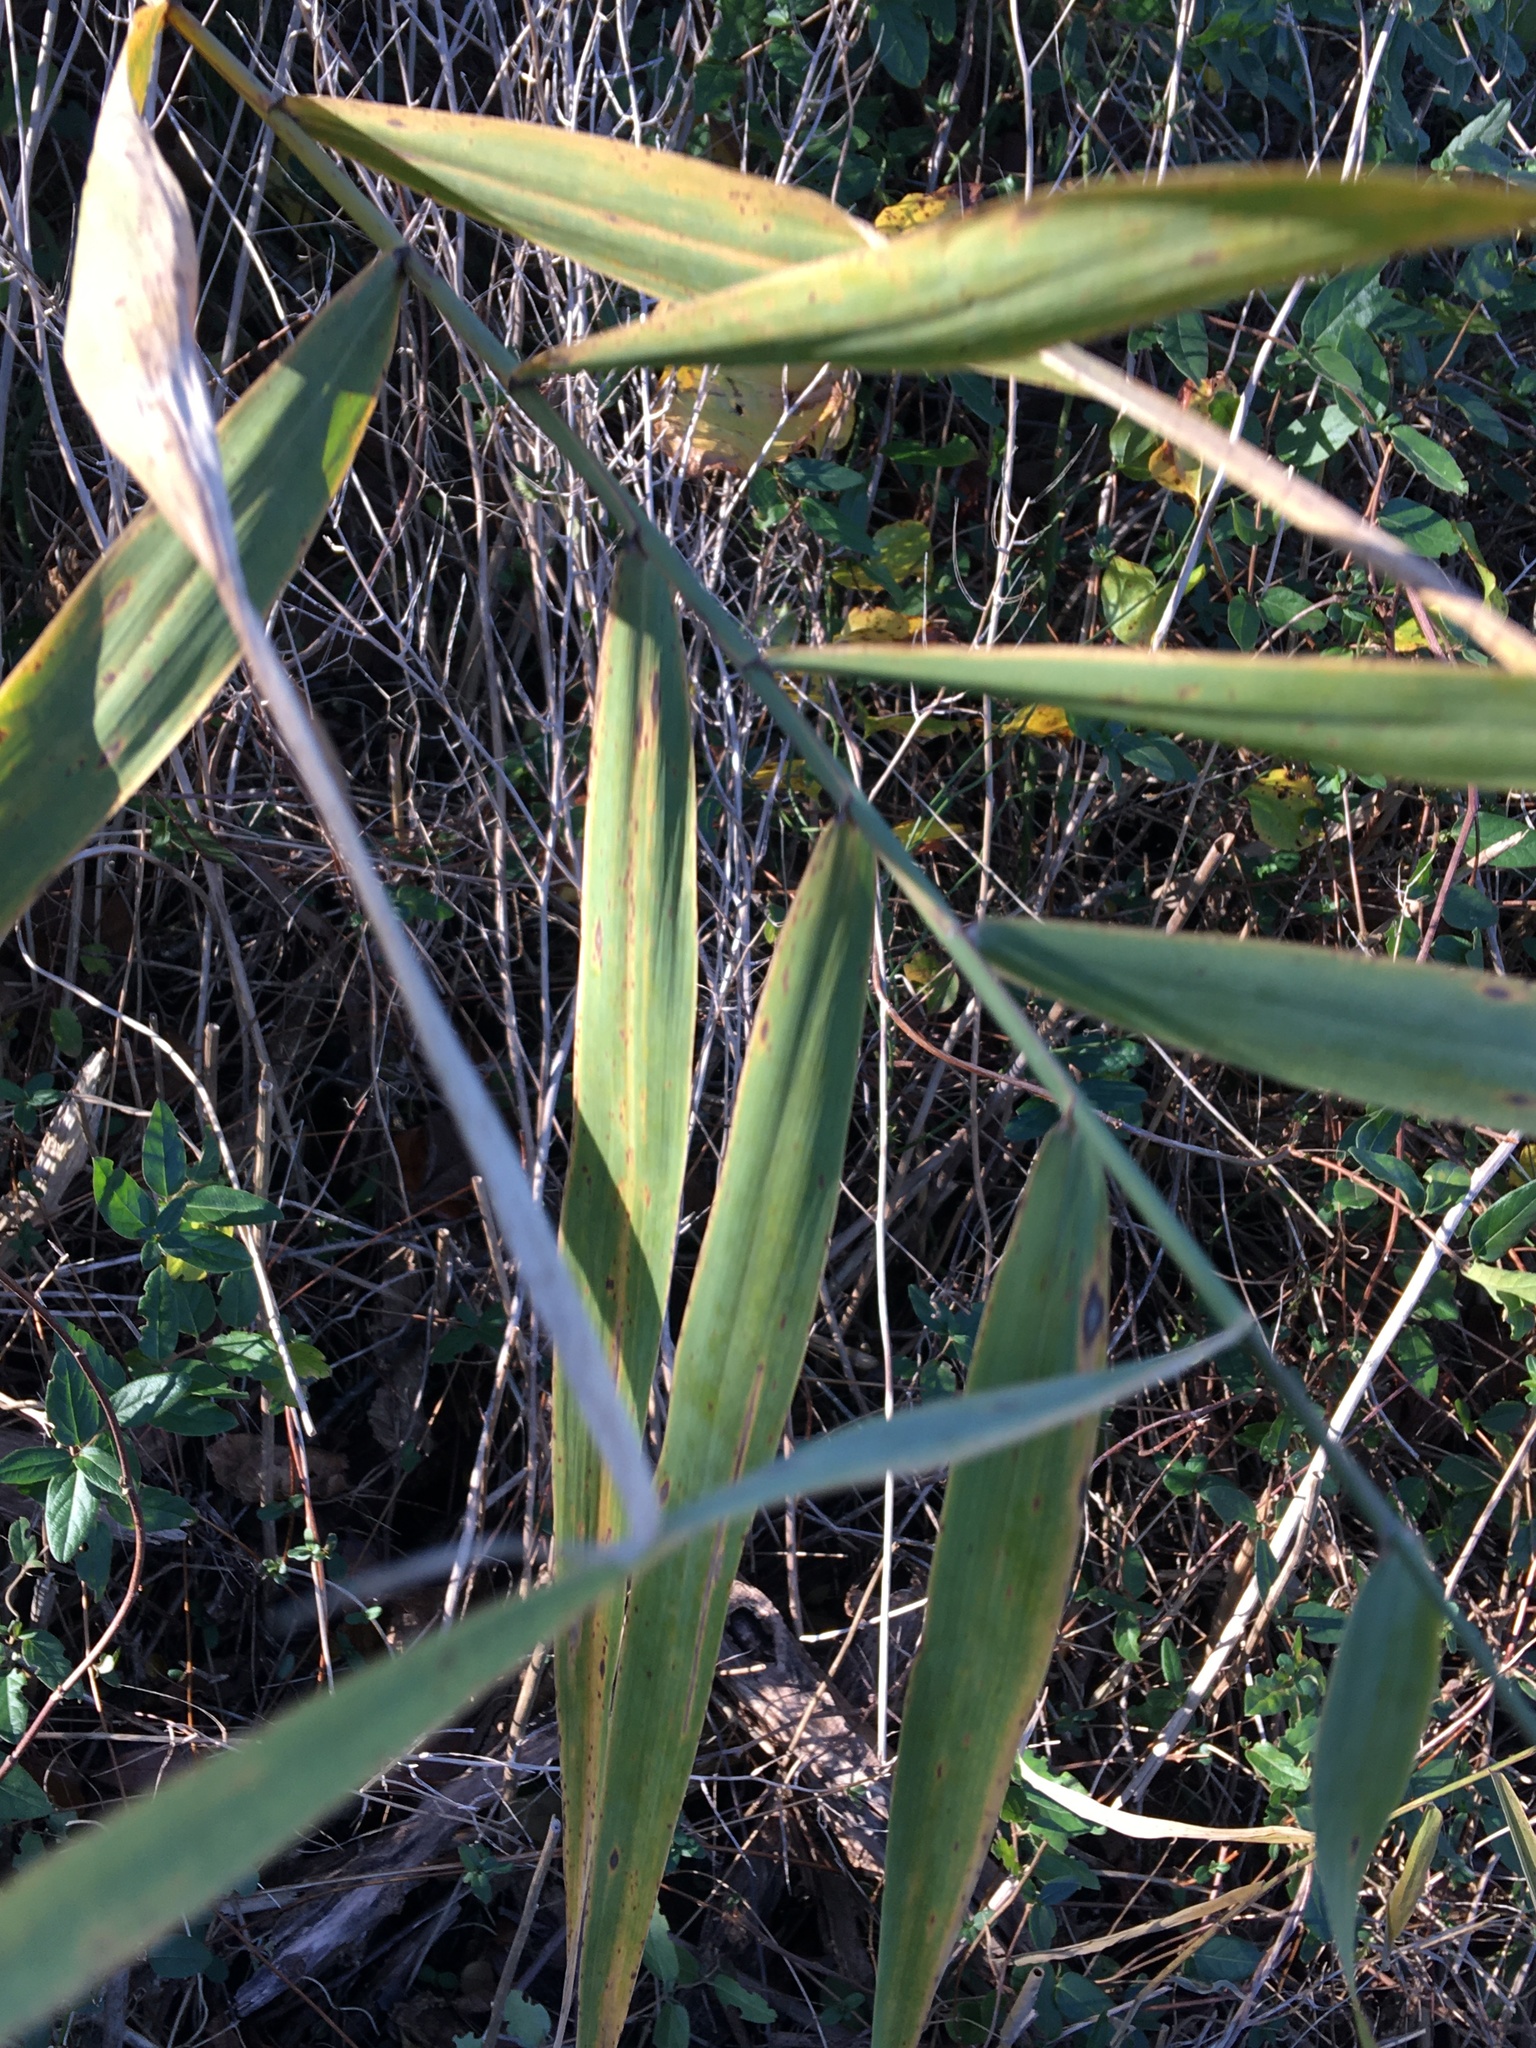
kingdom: Plantae
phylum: Tracheophyta
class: Liliopsida
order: Poales
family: Poaceae
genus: Phragmites
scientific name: Phragmites australis
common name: Common reed
